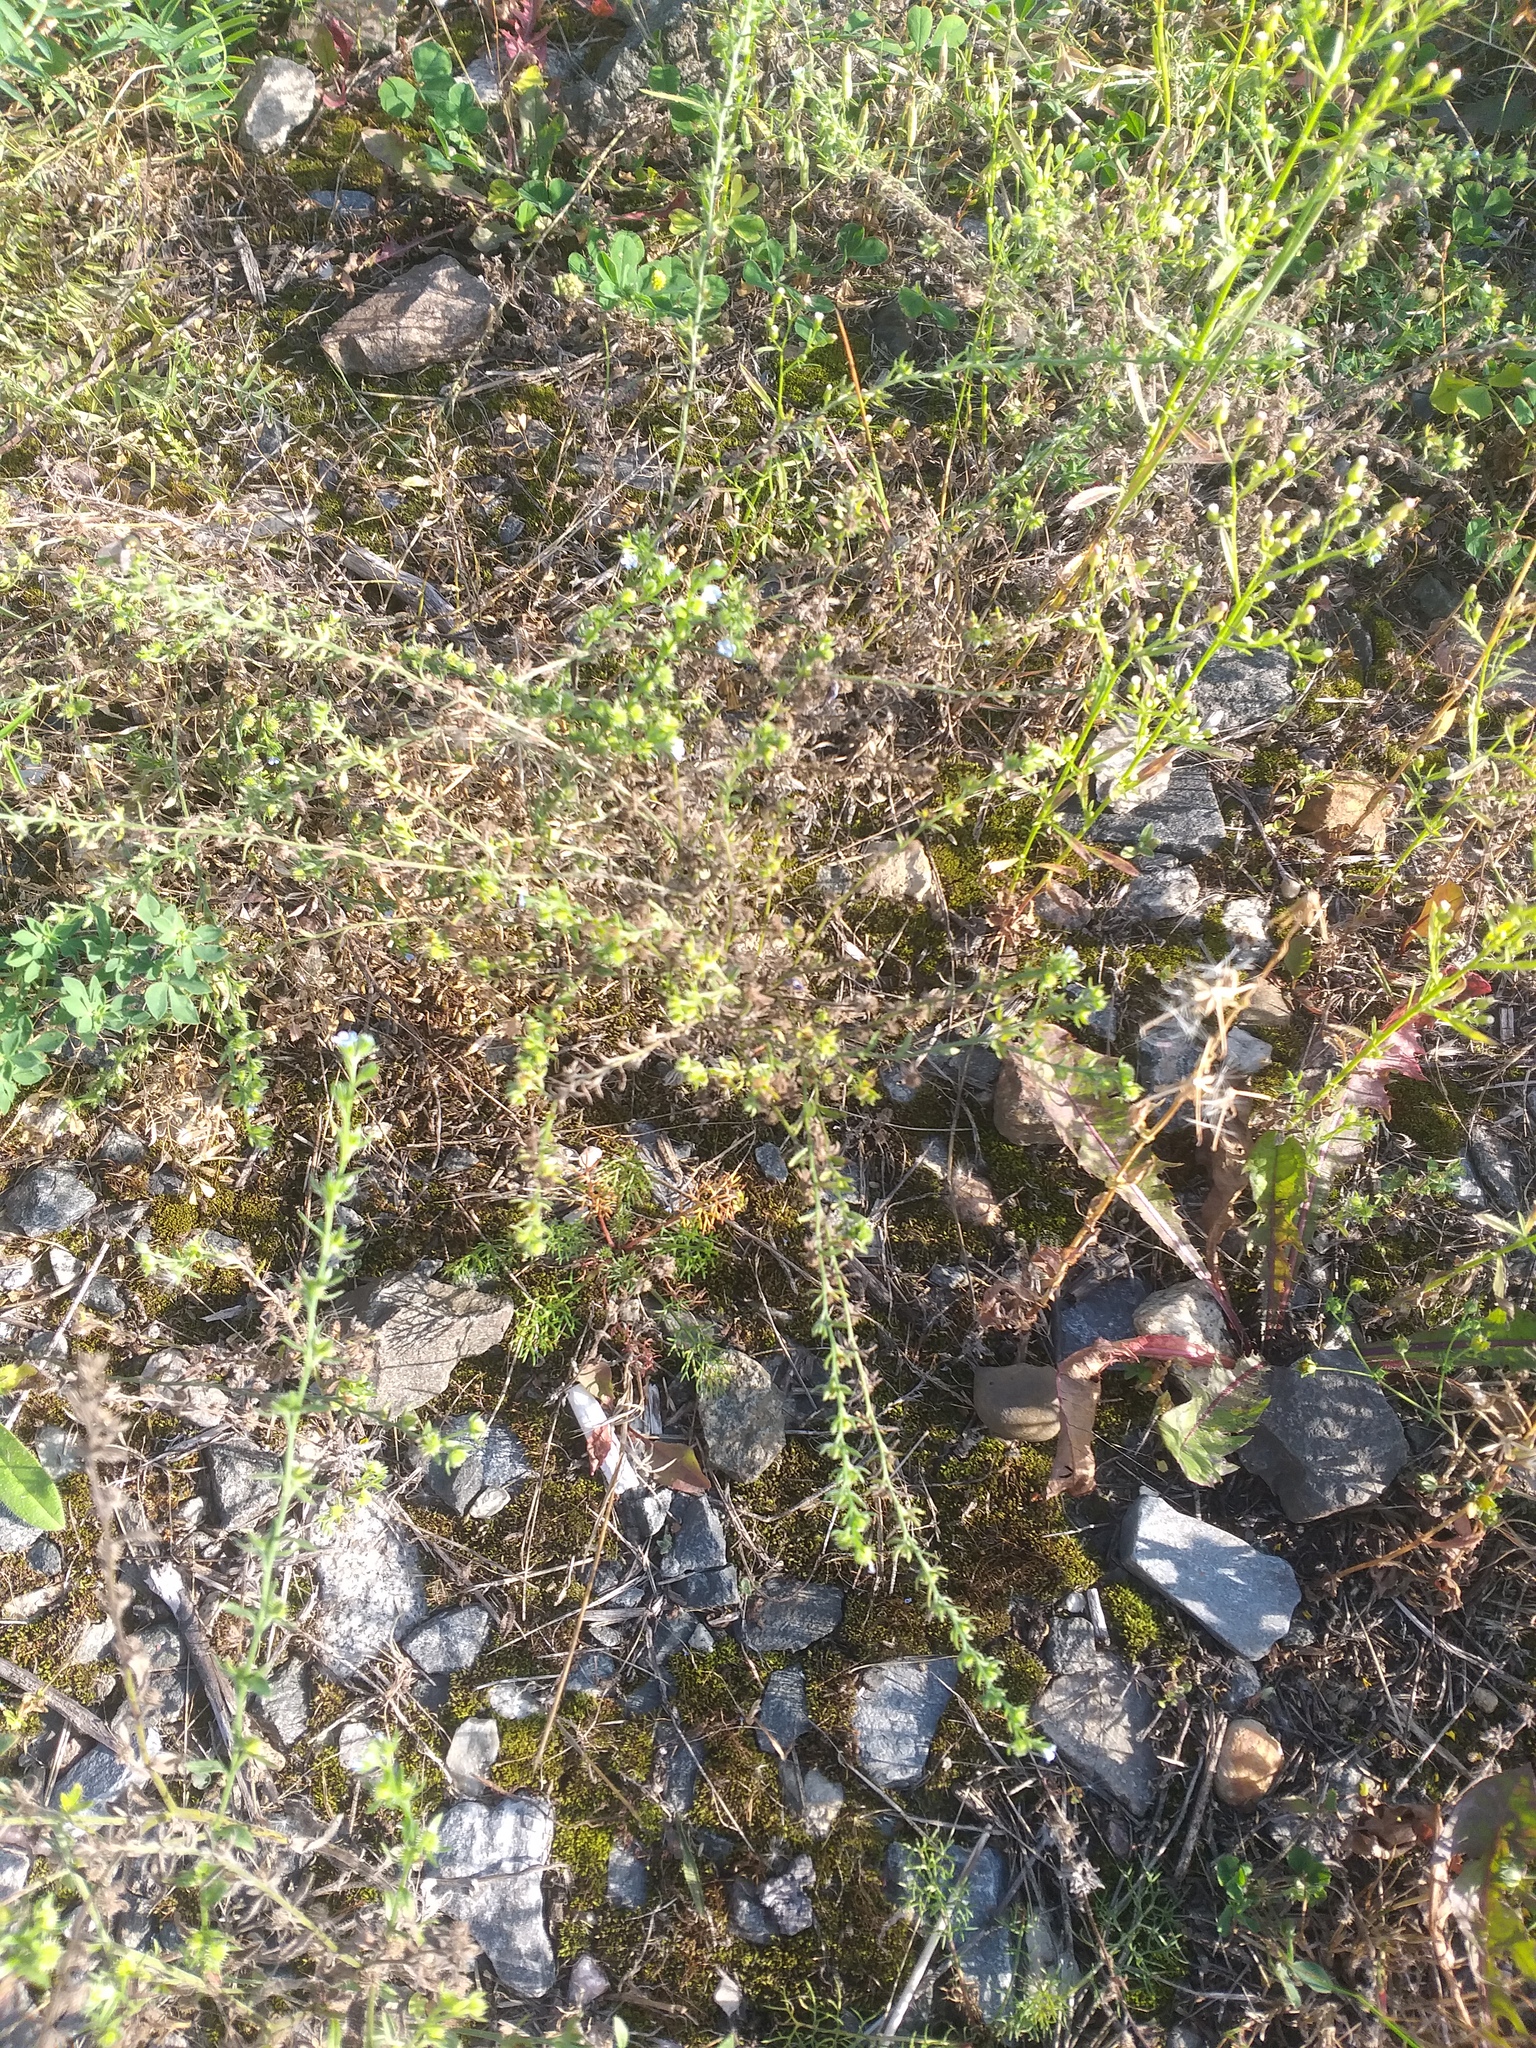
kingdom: Plantae
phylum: Tracheophyta
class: Magnoliopsida
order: Boraginales
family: Boraginaceae
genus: Lappula
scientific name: Lappula squarrosa
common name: European stickseed
